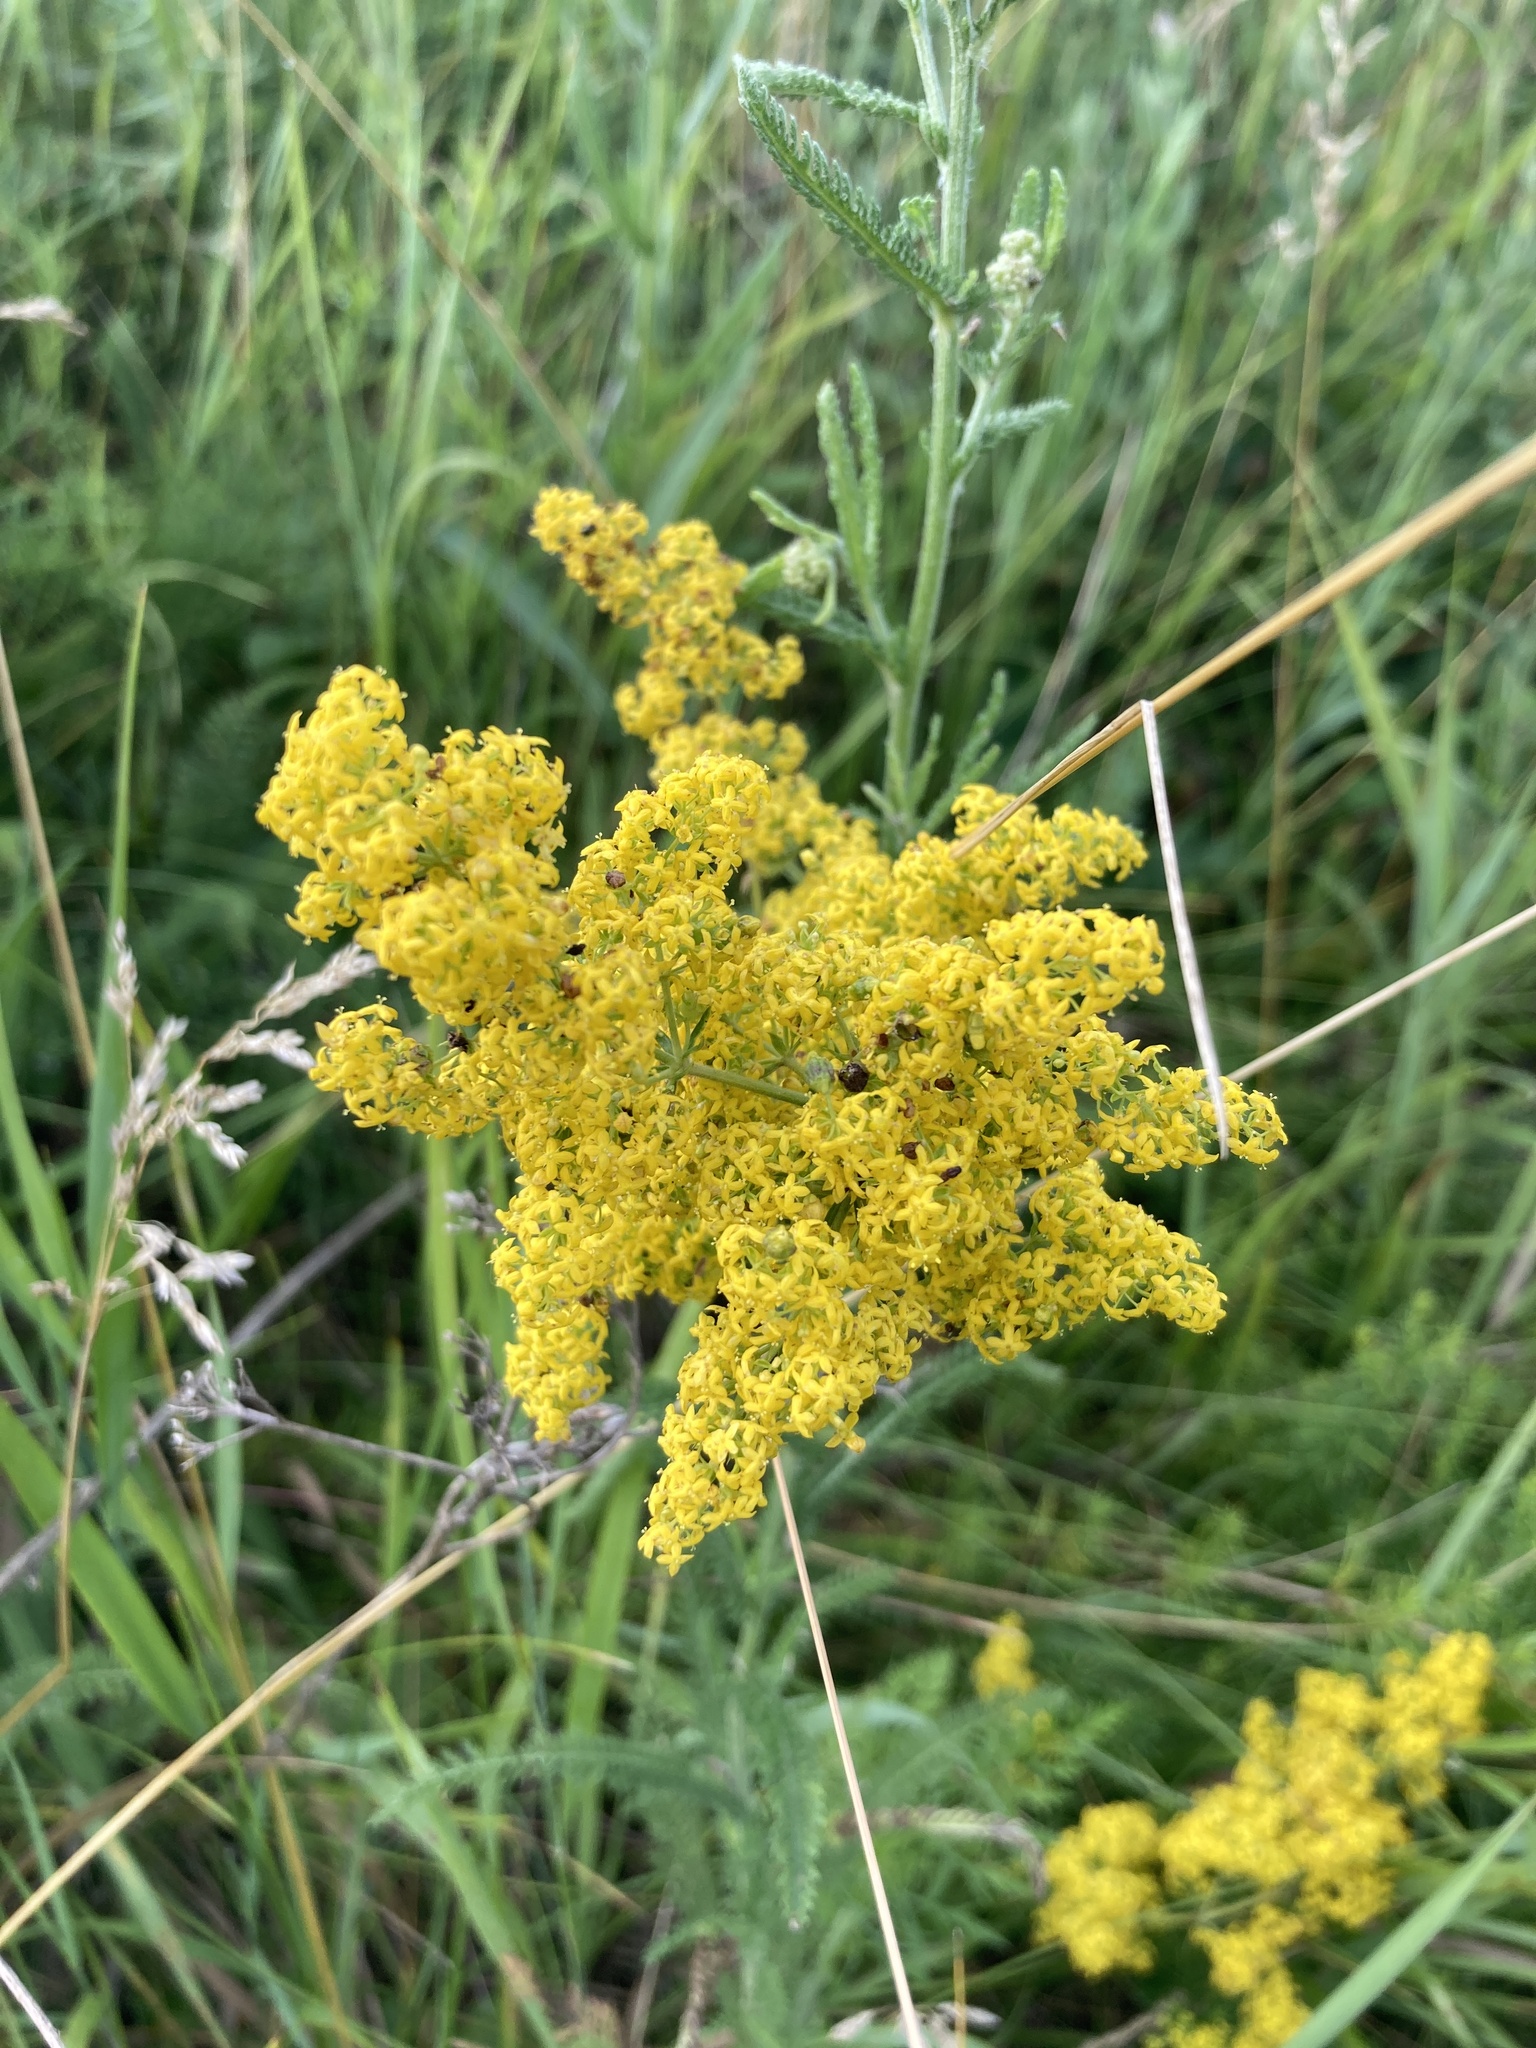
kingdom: Plantae
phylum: Tracheophyta
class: Magnoliopsida
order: Gentianales
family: Rubiaceae
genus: Galium
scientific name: Galium verum
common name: Lady's bedstraw
